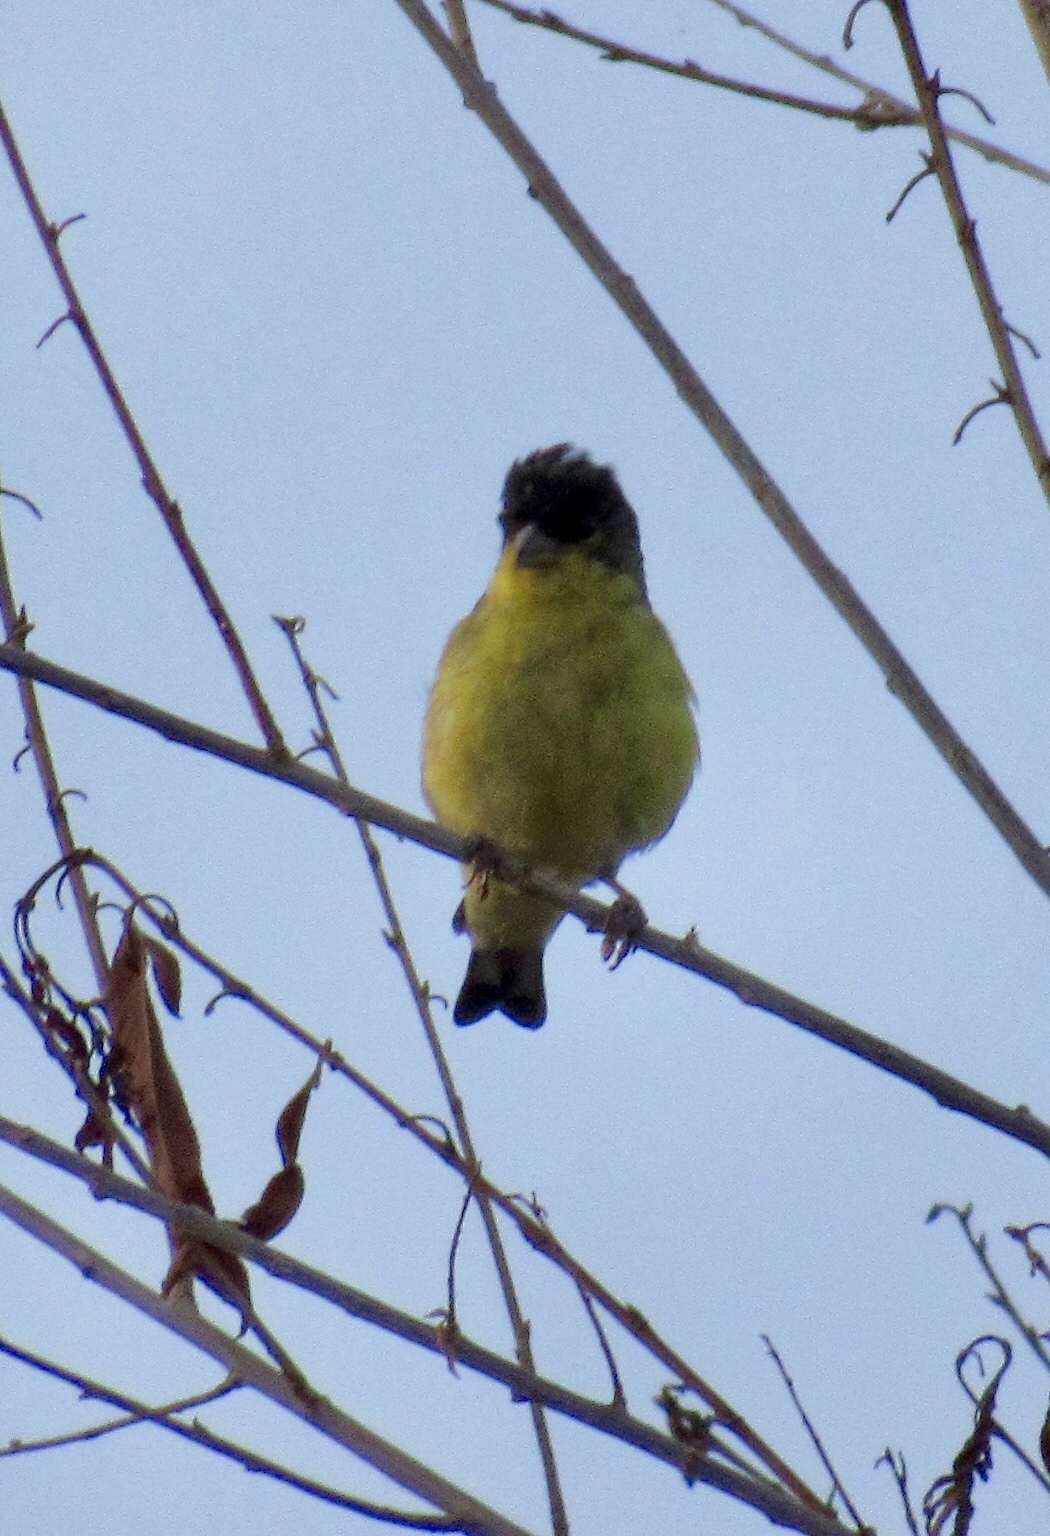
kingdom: Animalia
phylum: Chordata
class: Aves
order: Passeriformes
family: Fringillidae
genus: Spinus
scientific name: Spinus psaltria
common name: Lesser goldfinch
